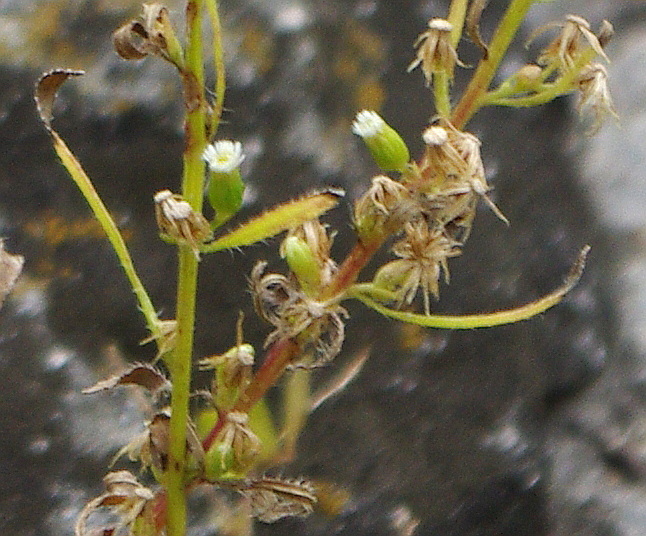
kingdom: Plantae
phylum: Tracheophyta
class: Magnoliopsida
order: Asterales
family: Asteraceae
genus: Erigeron
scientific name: Erigeron canadensis
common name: Canadian fleabane
